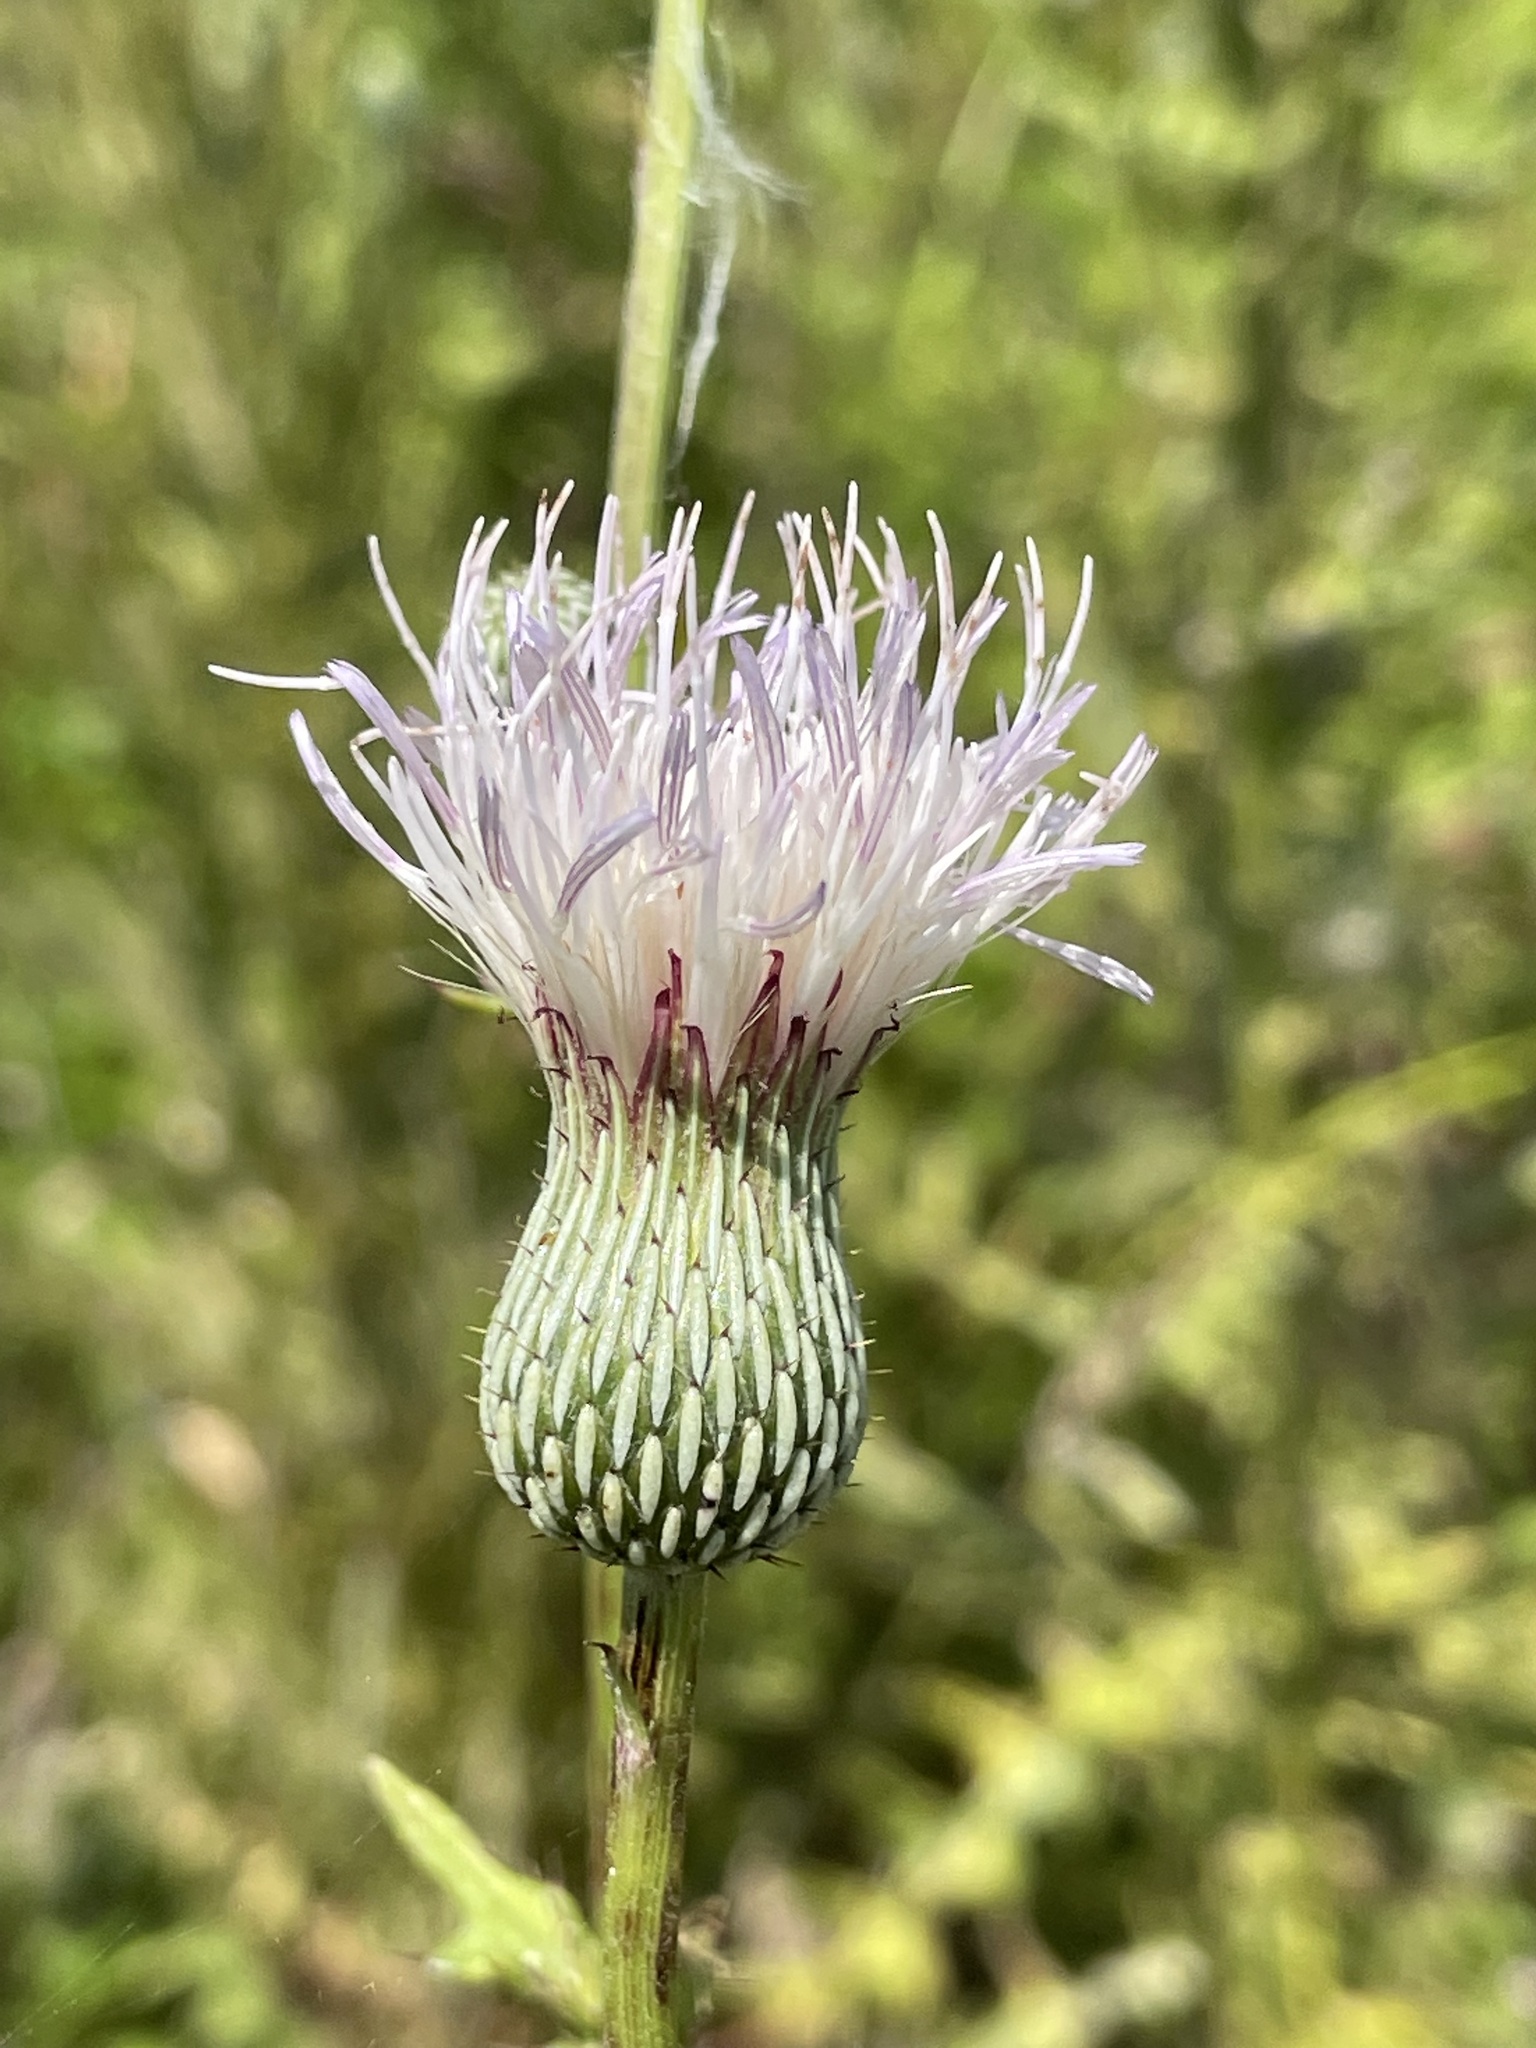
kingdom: Plantae
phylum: Tracheophyta
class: Magnoliopsida
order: Asterales
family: Asteraceae
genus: Cirsium
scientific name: Cirsium nuttalii
